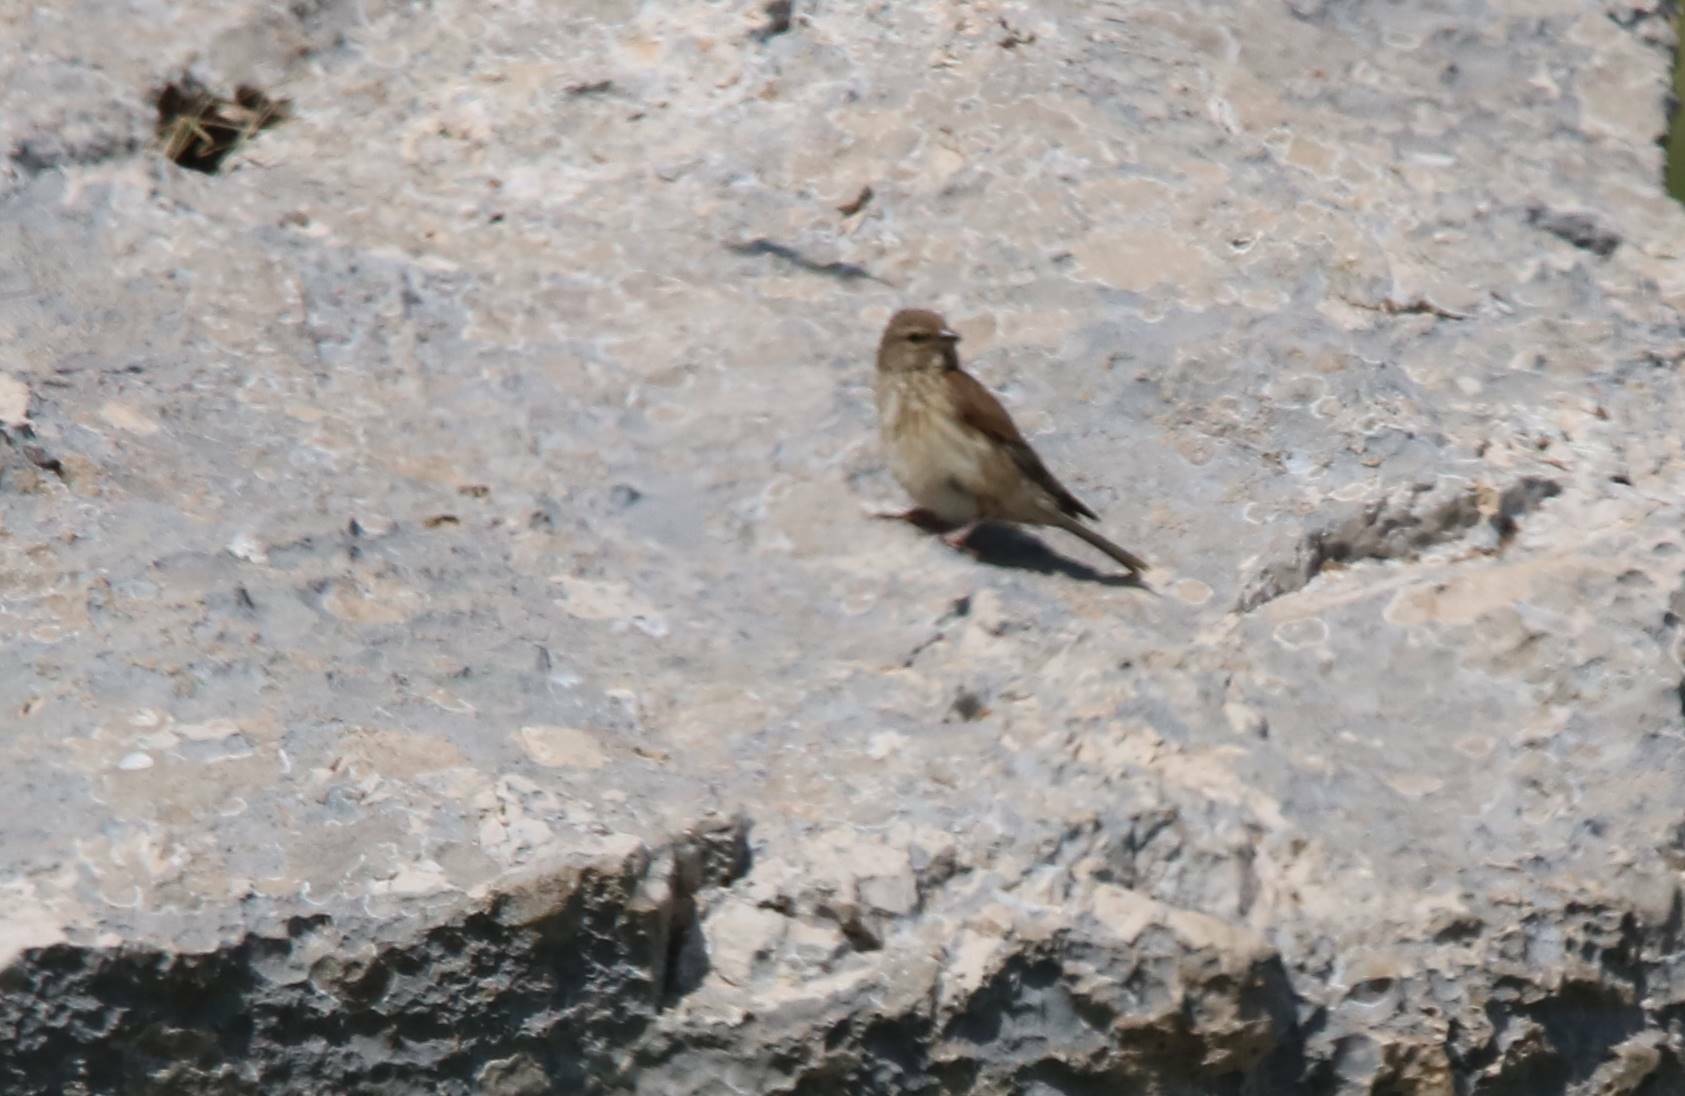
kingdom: Animalia
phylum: Chordata
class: Aves
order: Passeriformes
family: Fringillidae
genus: Linaria
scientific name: Linaria cannabina
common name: Common linnet
